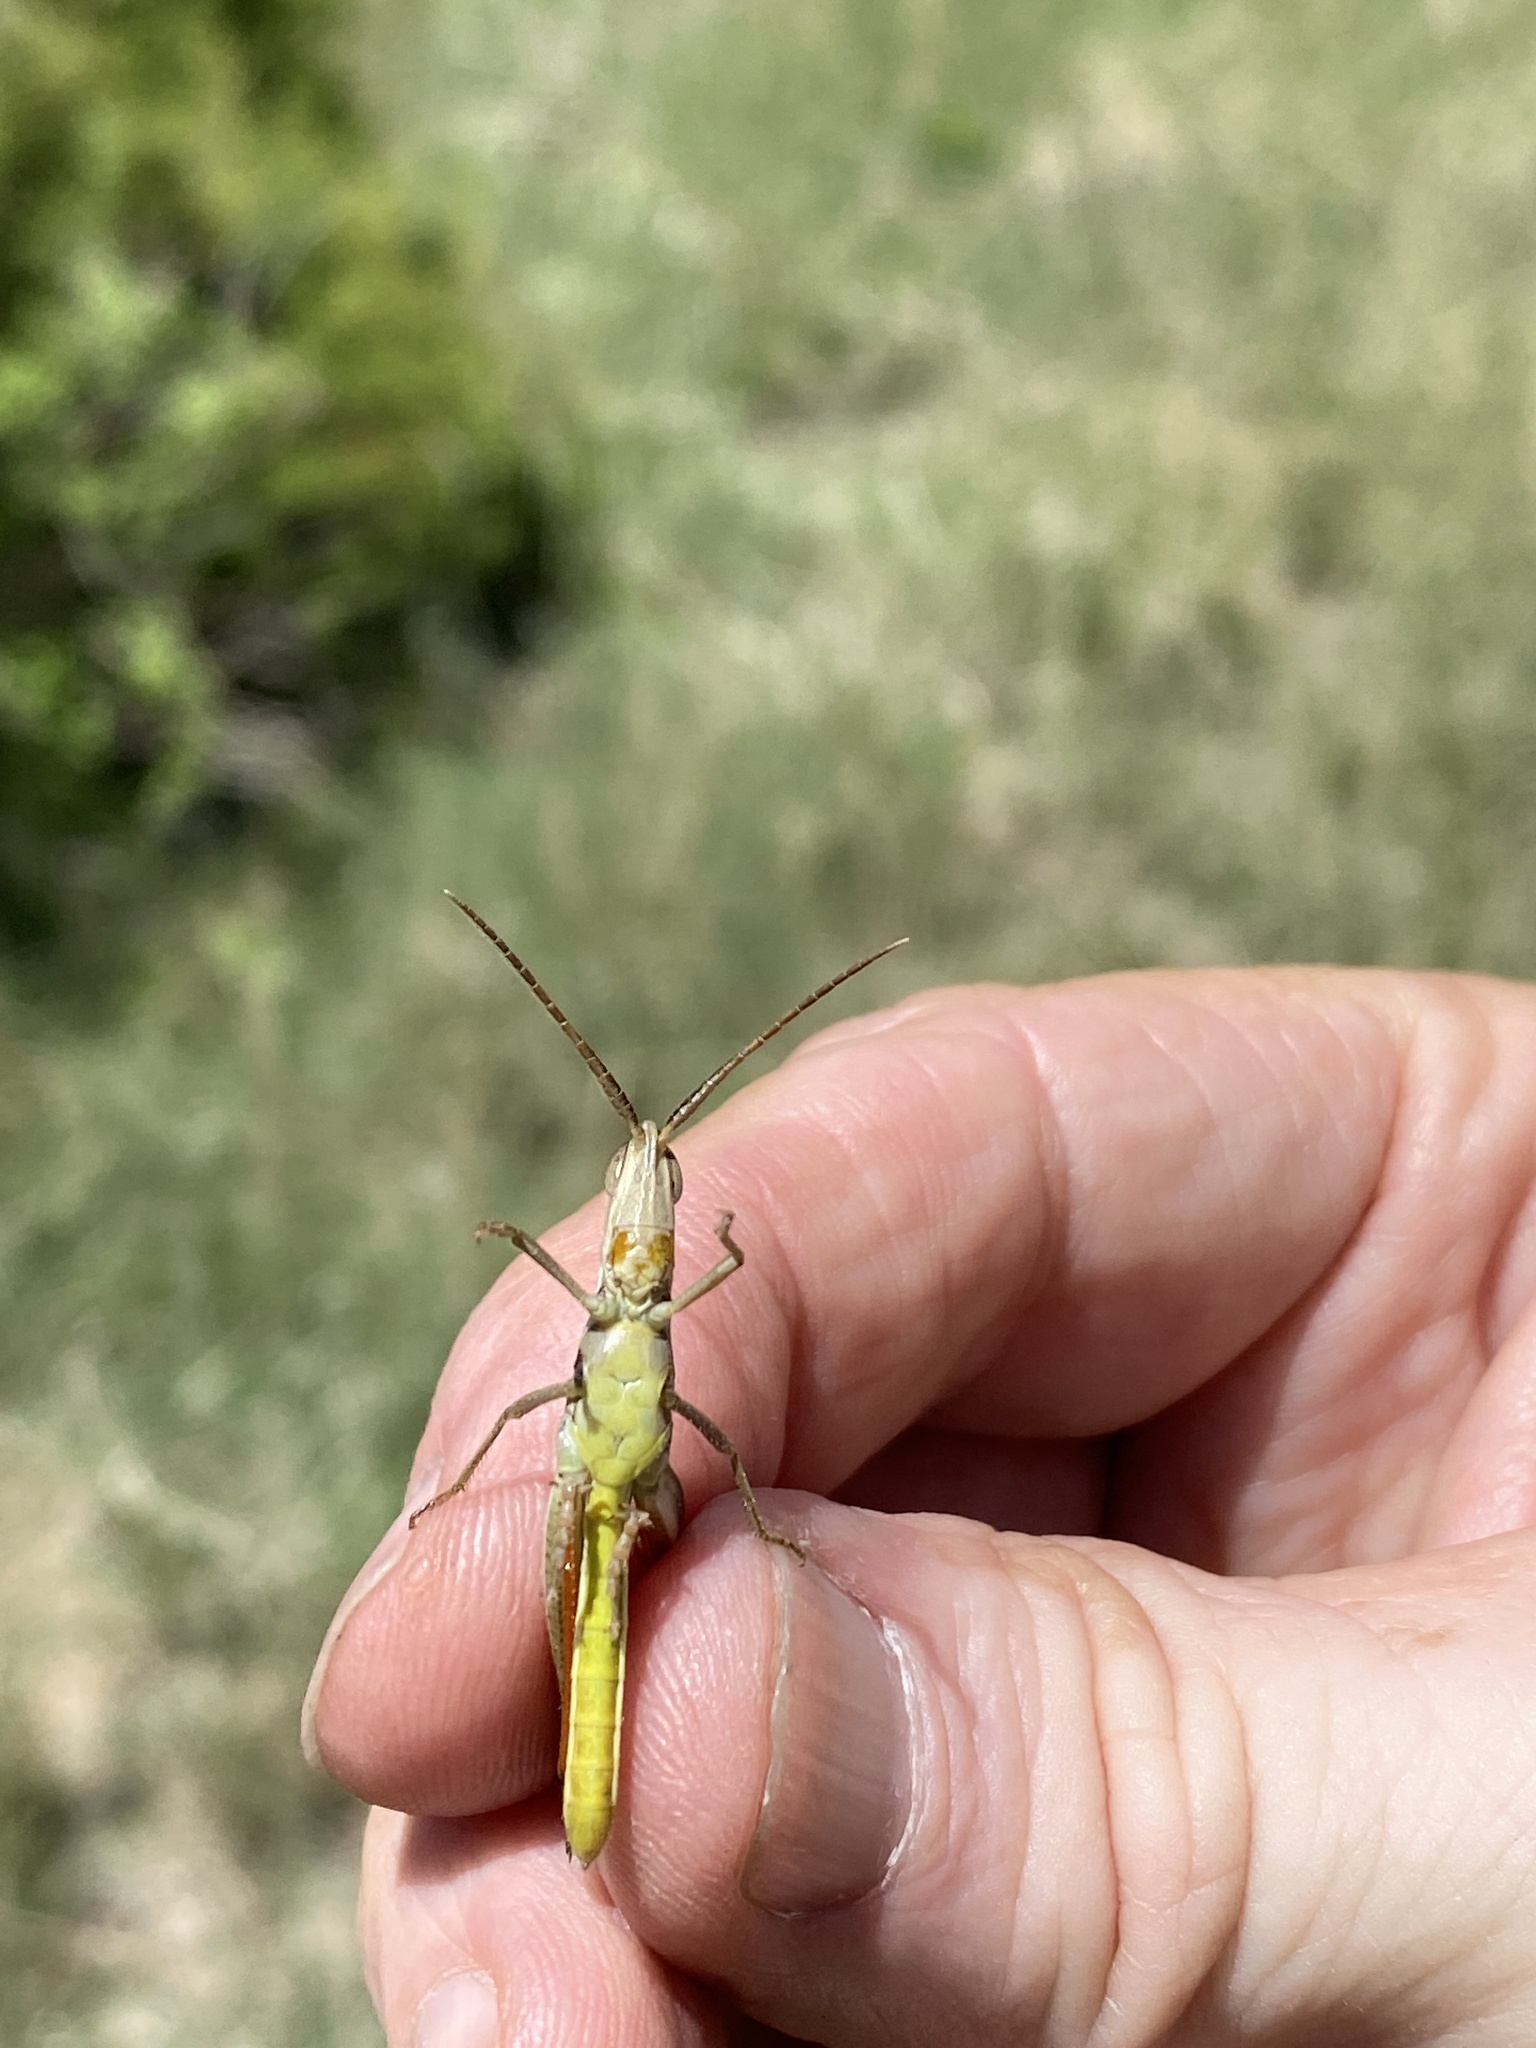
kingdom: Animalia
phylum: Arthropoda
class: Insecta
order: Orthoptera
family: Acrididae
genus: Mermiria
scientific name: Mermiria bivittata
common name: Two-striped mermiria grasshopper
